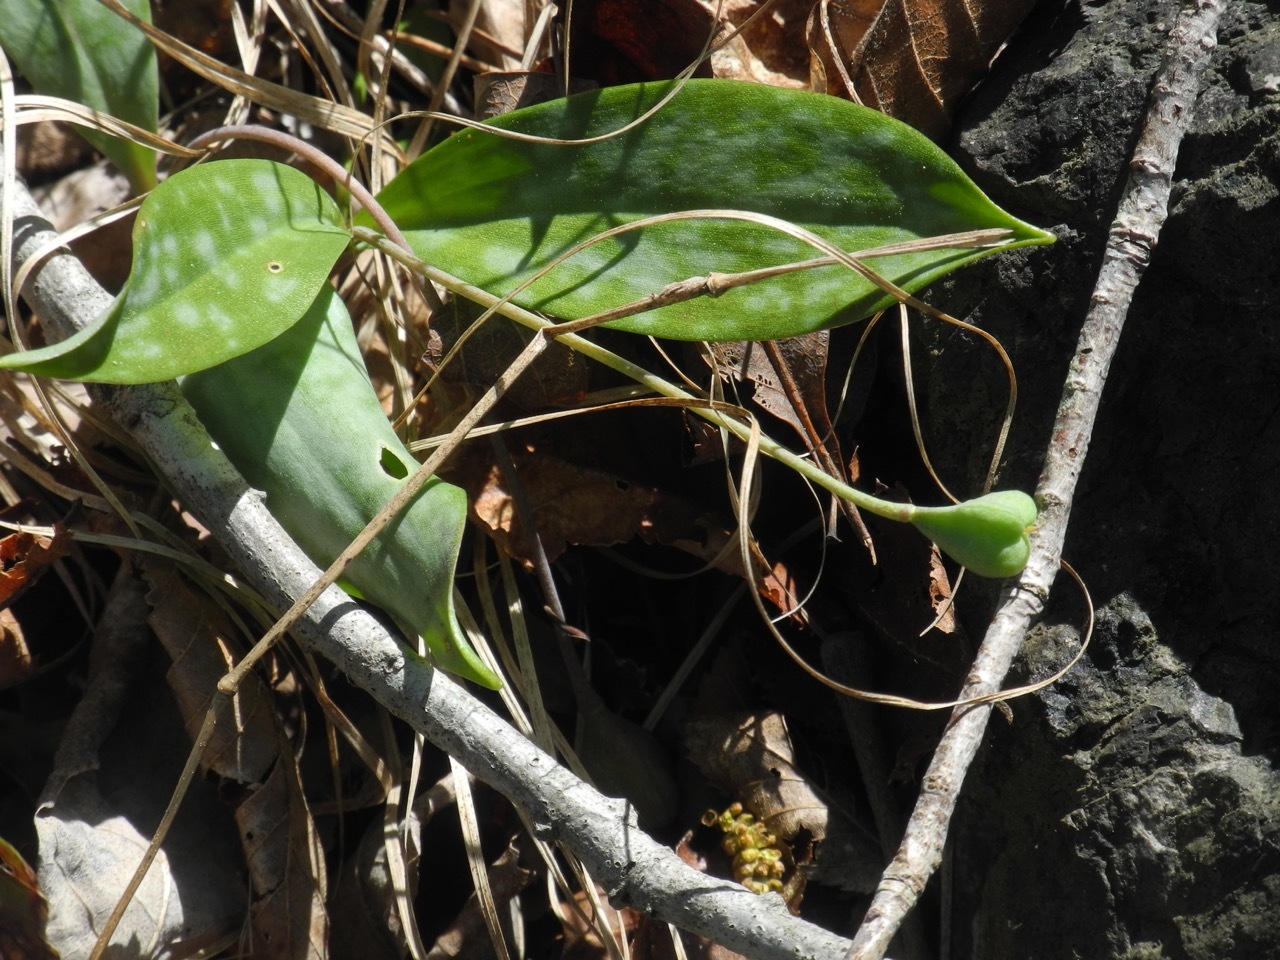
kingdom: Plantae
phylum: Tracheophyta
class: Liliopsida
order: Liliales
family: Liliaceae
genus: Erythronium
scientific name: Erythronium umbilicatum
